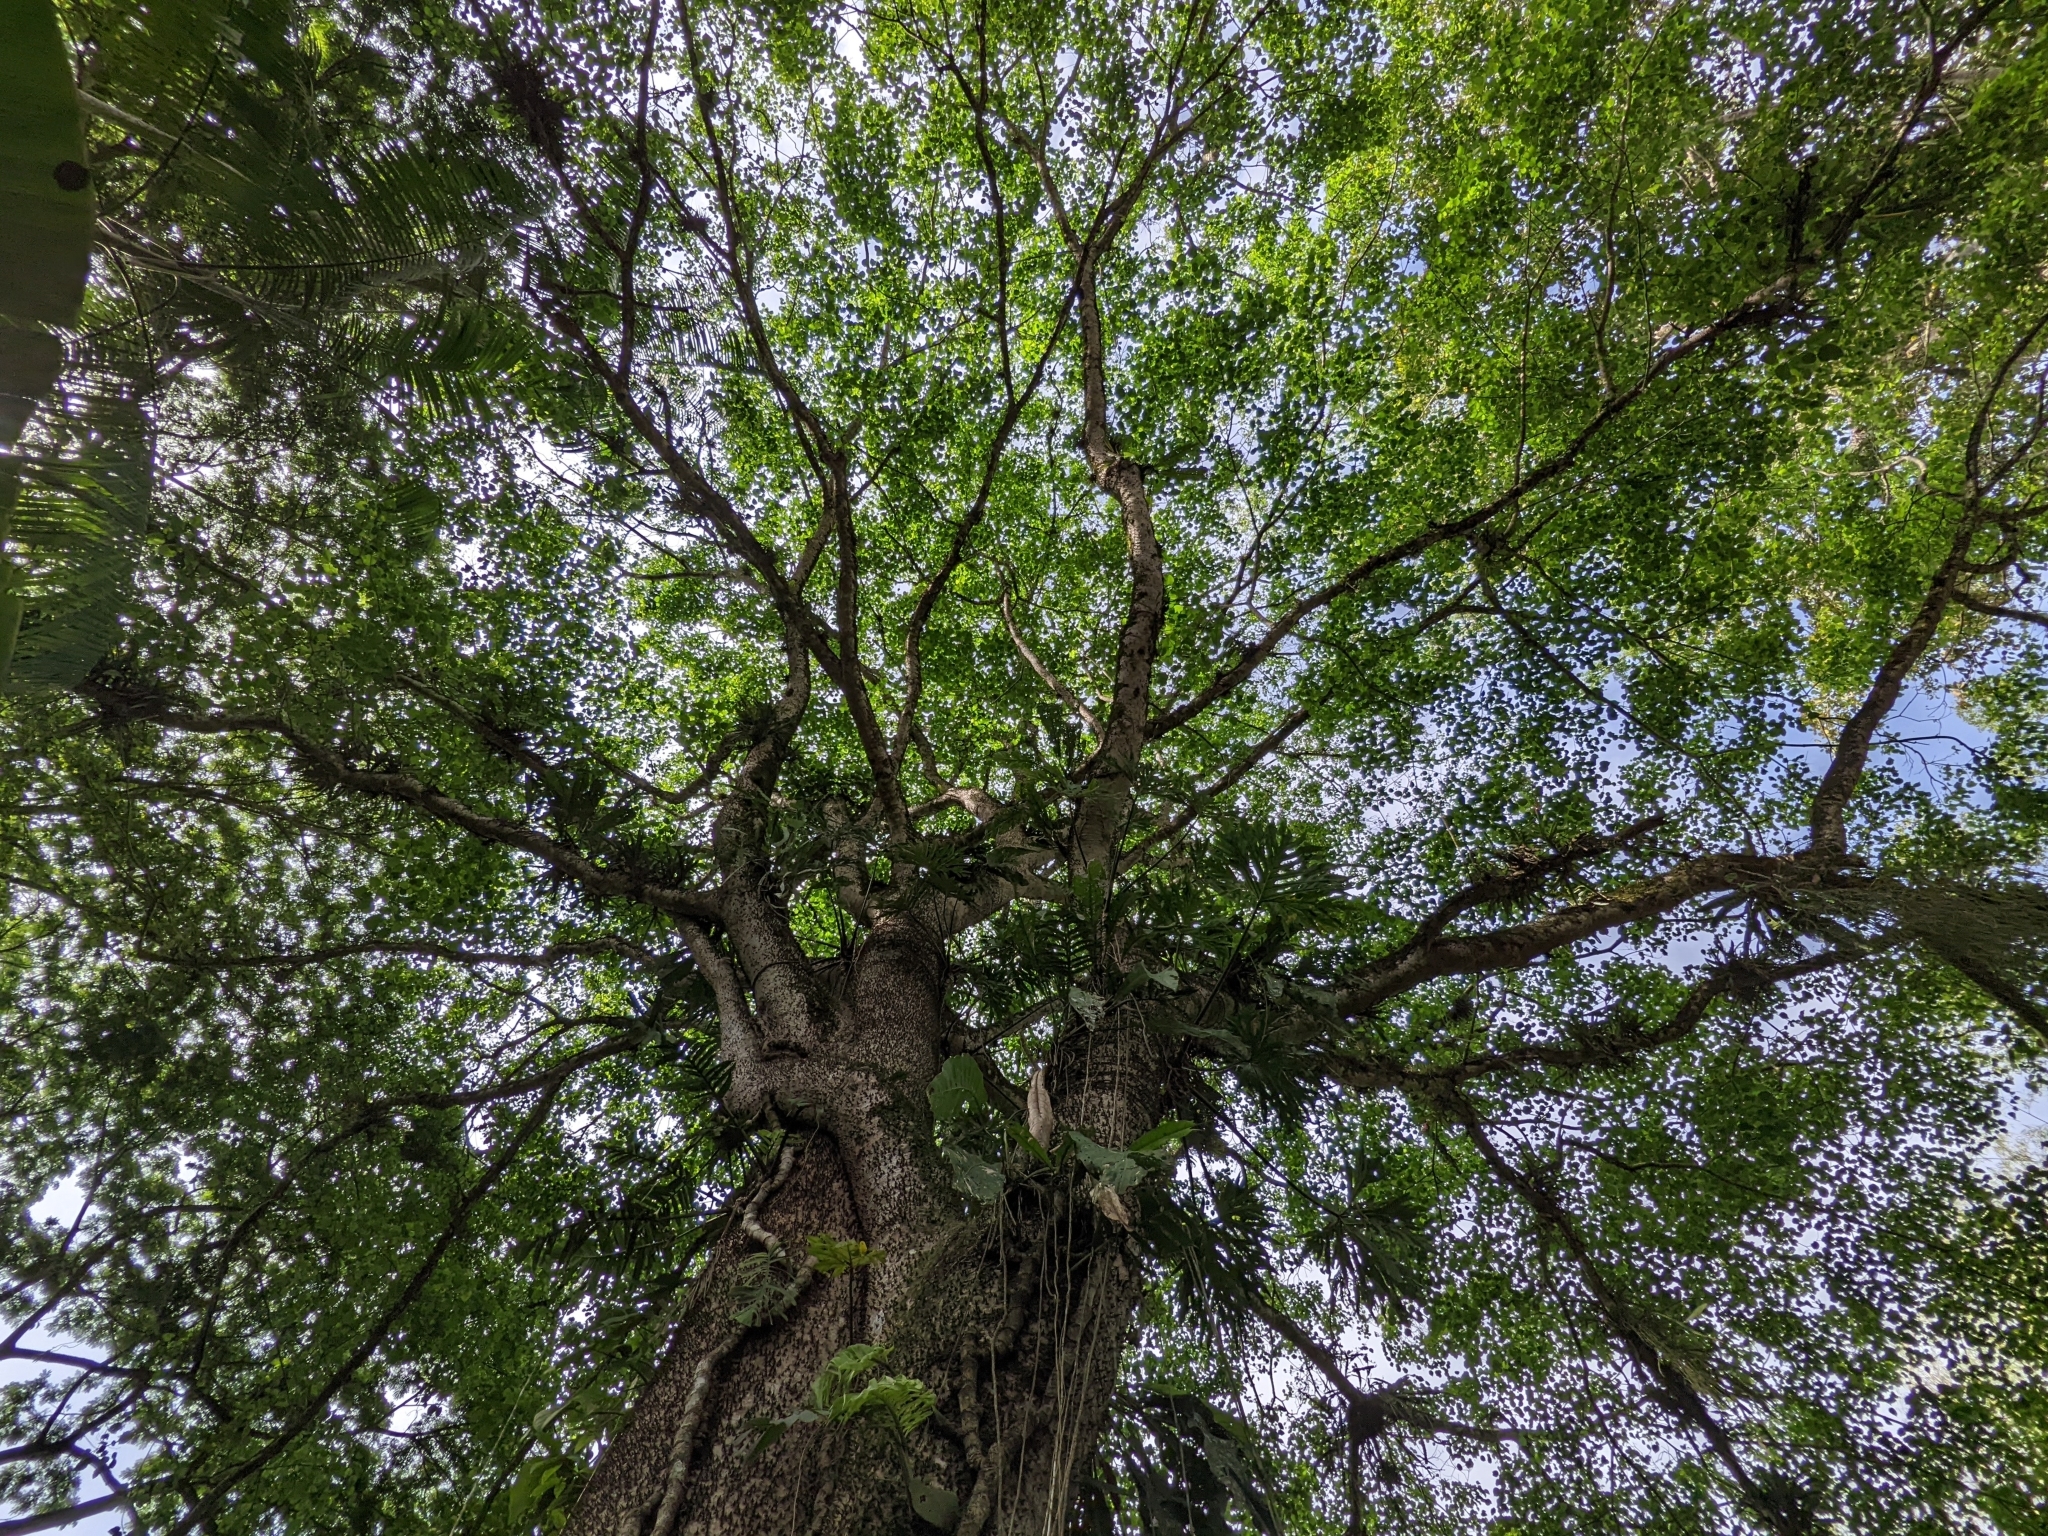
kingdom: Plantae
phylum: Tracheophyta
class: Magnoliopsida
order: Malpighiales
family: Euphorbiaceae
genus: Hura
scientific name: Hura crepitans
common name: Sandboxtree
